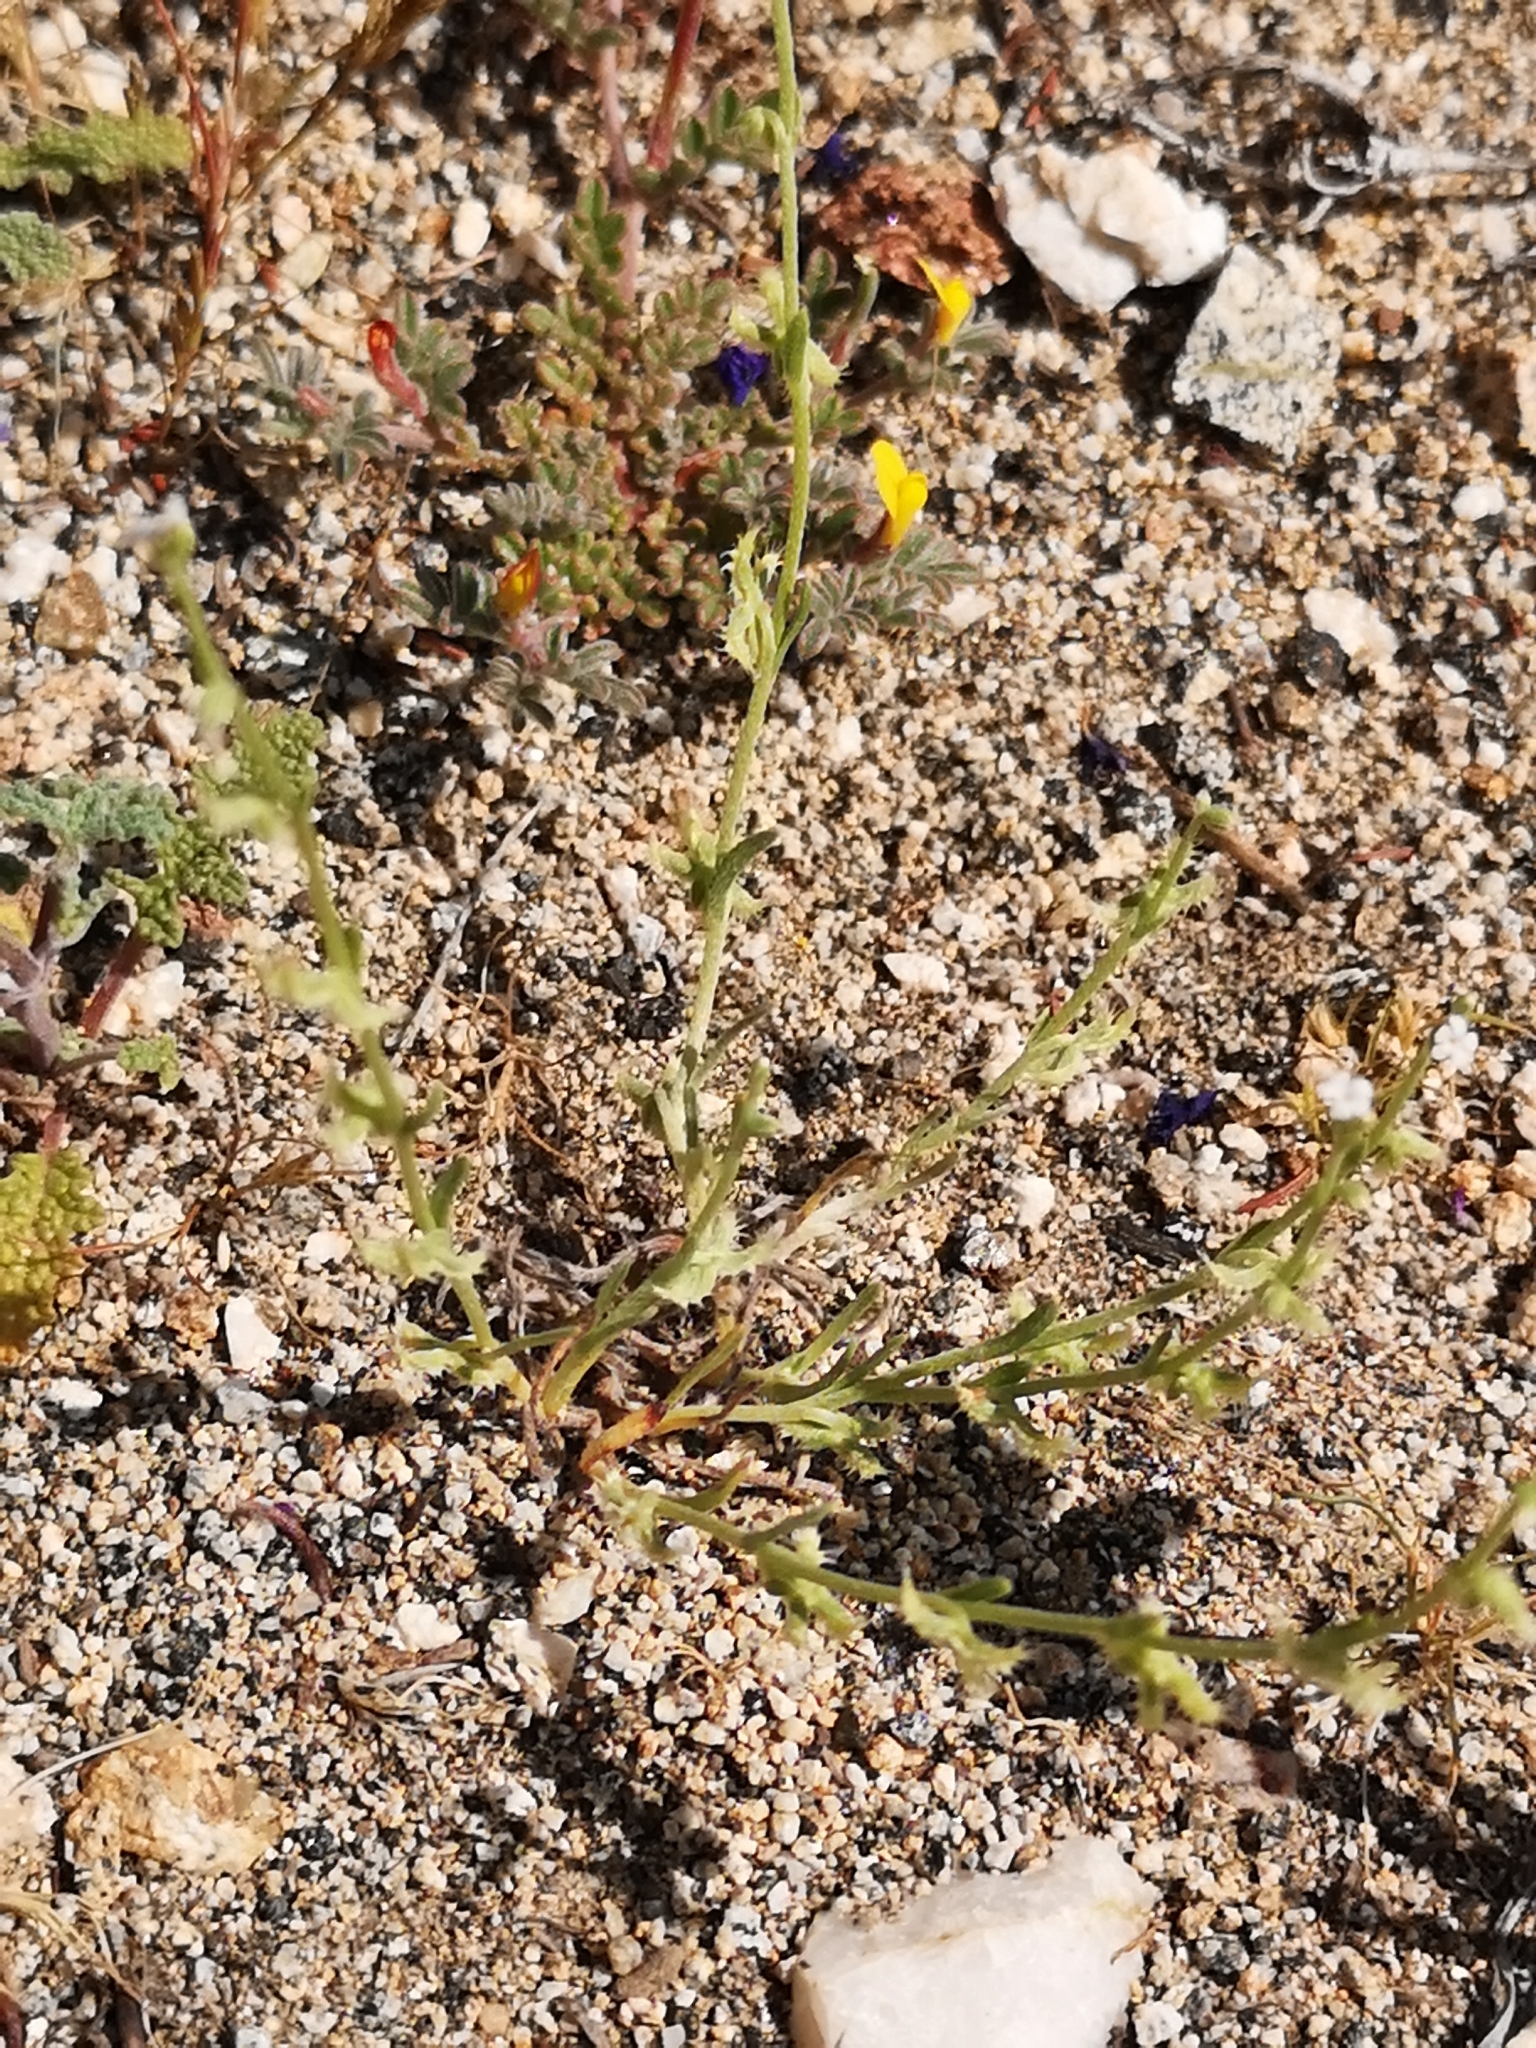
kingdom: Plantae
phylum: Tracheophyta
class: Magnoliopsida
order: Boraginales
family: Boraginaceae
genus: Pectocarya
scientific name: Pectocarya linearis
